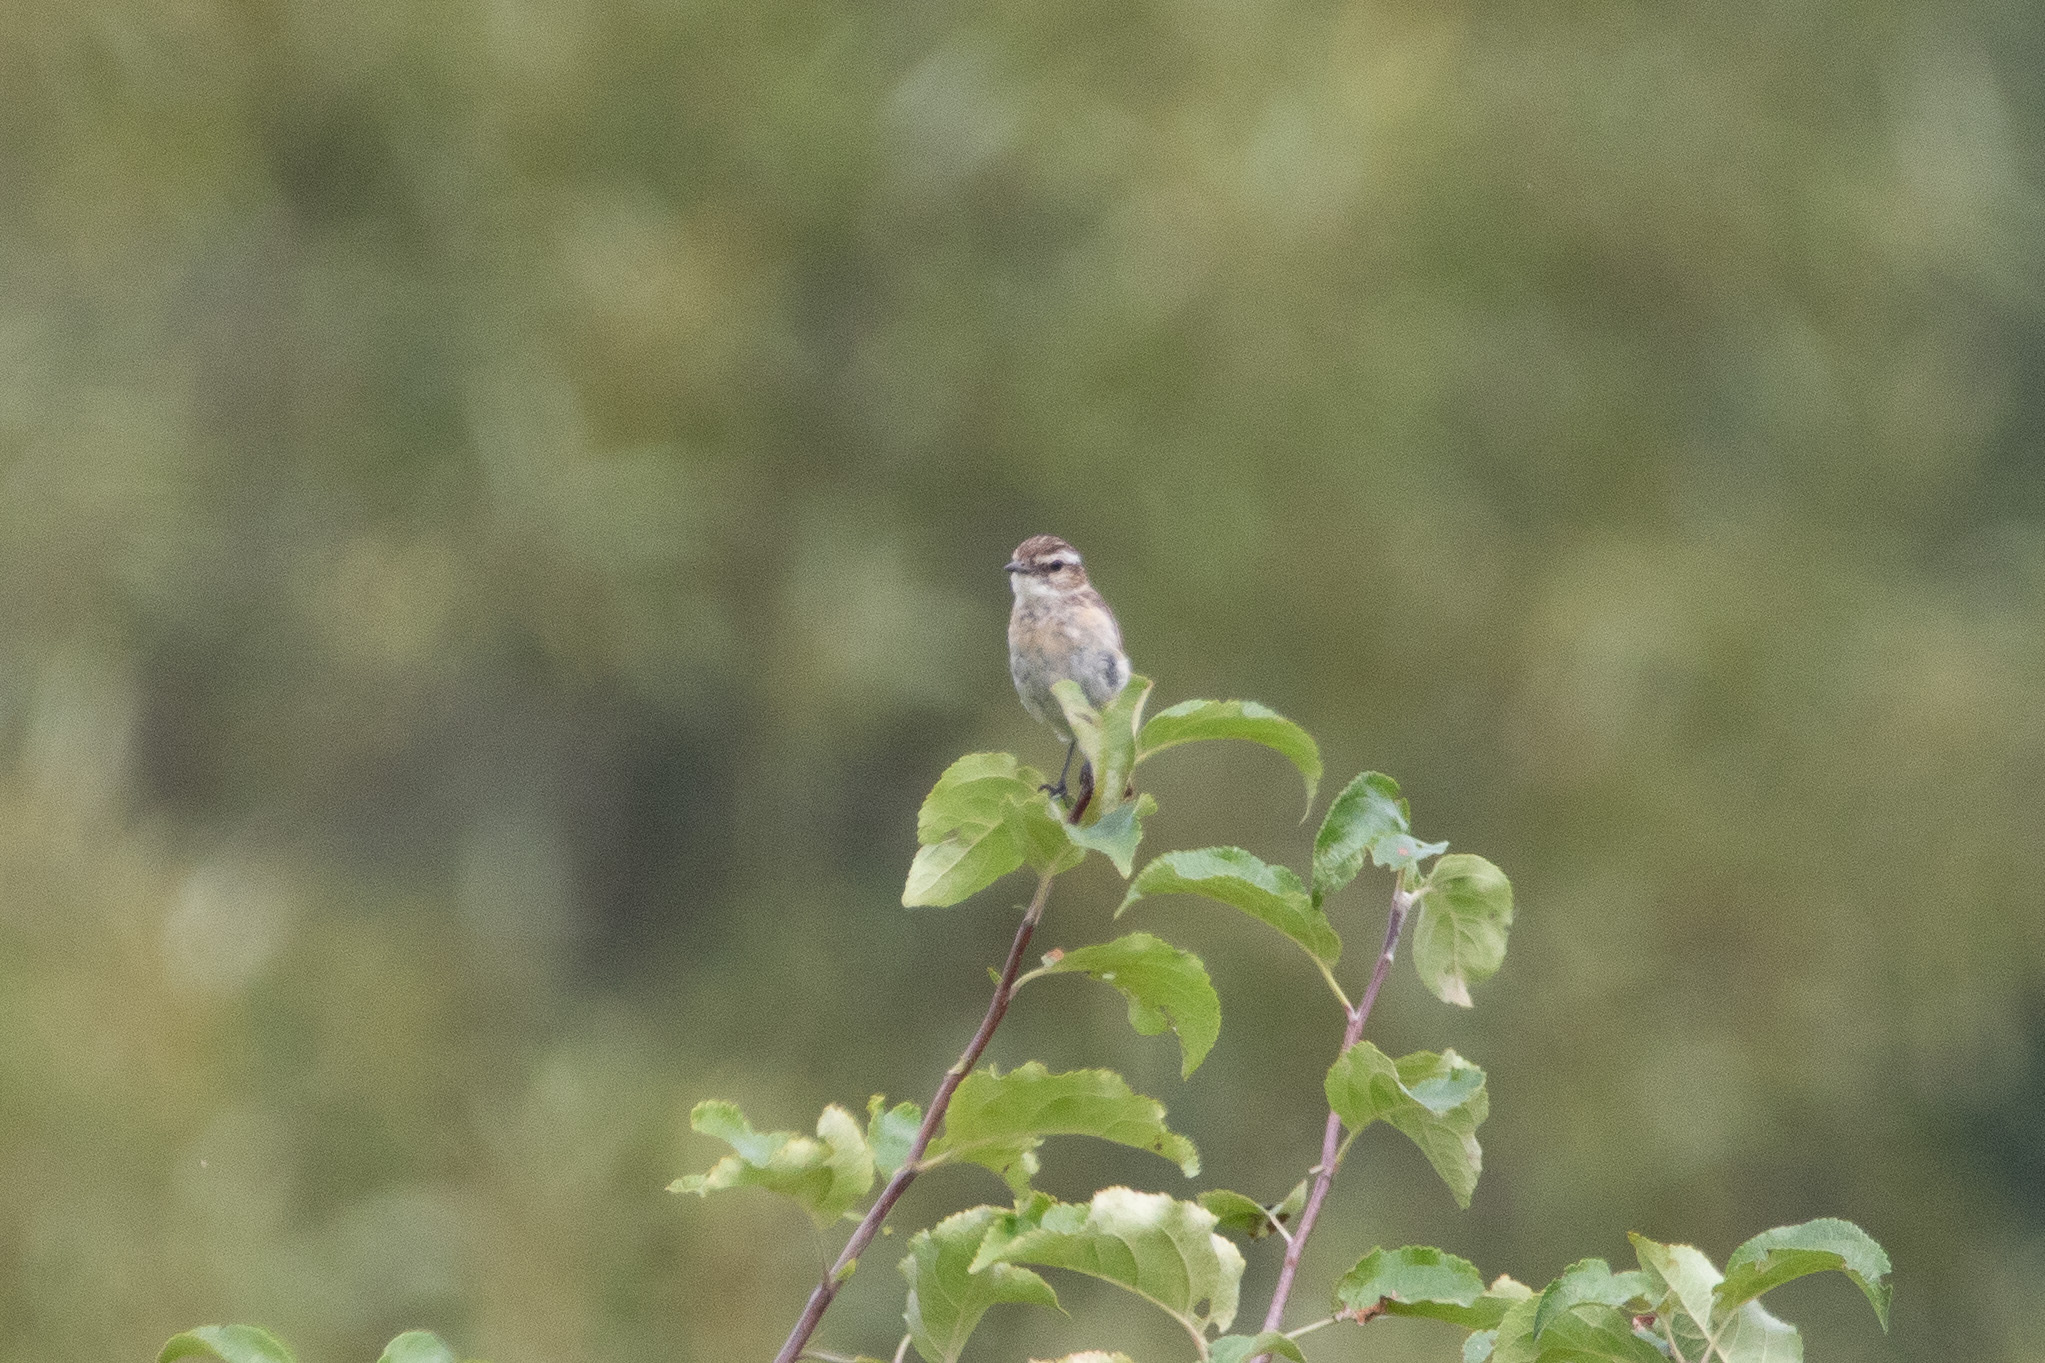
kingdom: Animalia
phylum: Chordata
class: Aves
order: Passeriformes
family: Muscicapidae
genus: Saxicola
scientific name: Saxicola rubetra
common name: Whinchat
